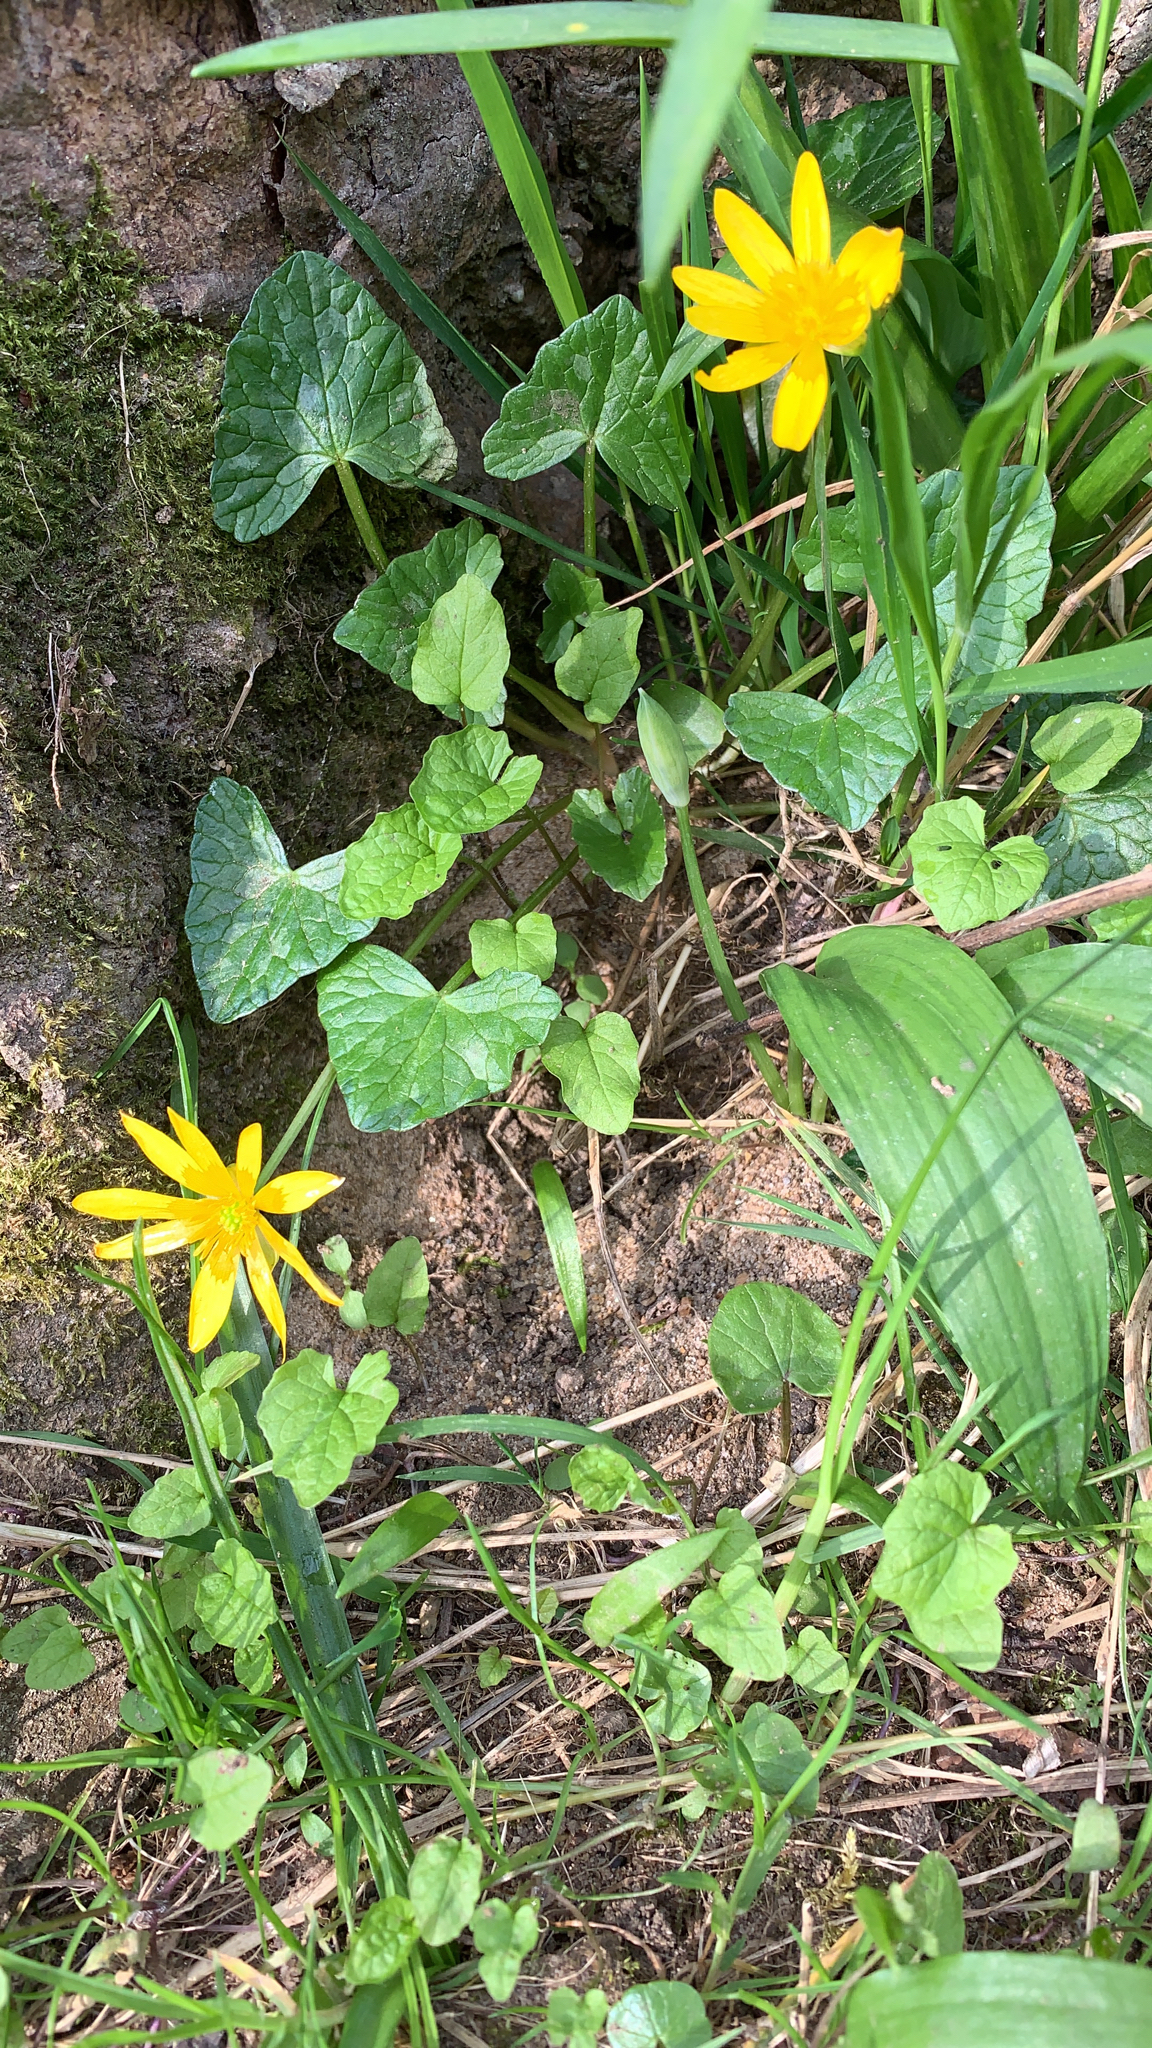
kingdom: Plantae
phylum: Tracheophyta
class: Magnoliopsida
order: Ranunculales
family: Ranunculaceae
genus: Ficaria
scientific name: Ficaria verna
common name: Lesser celandine
